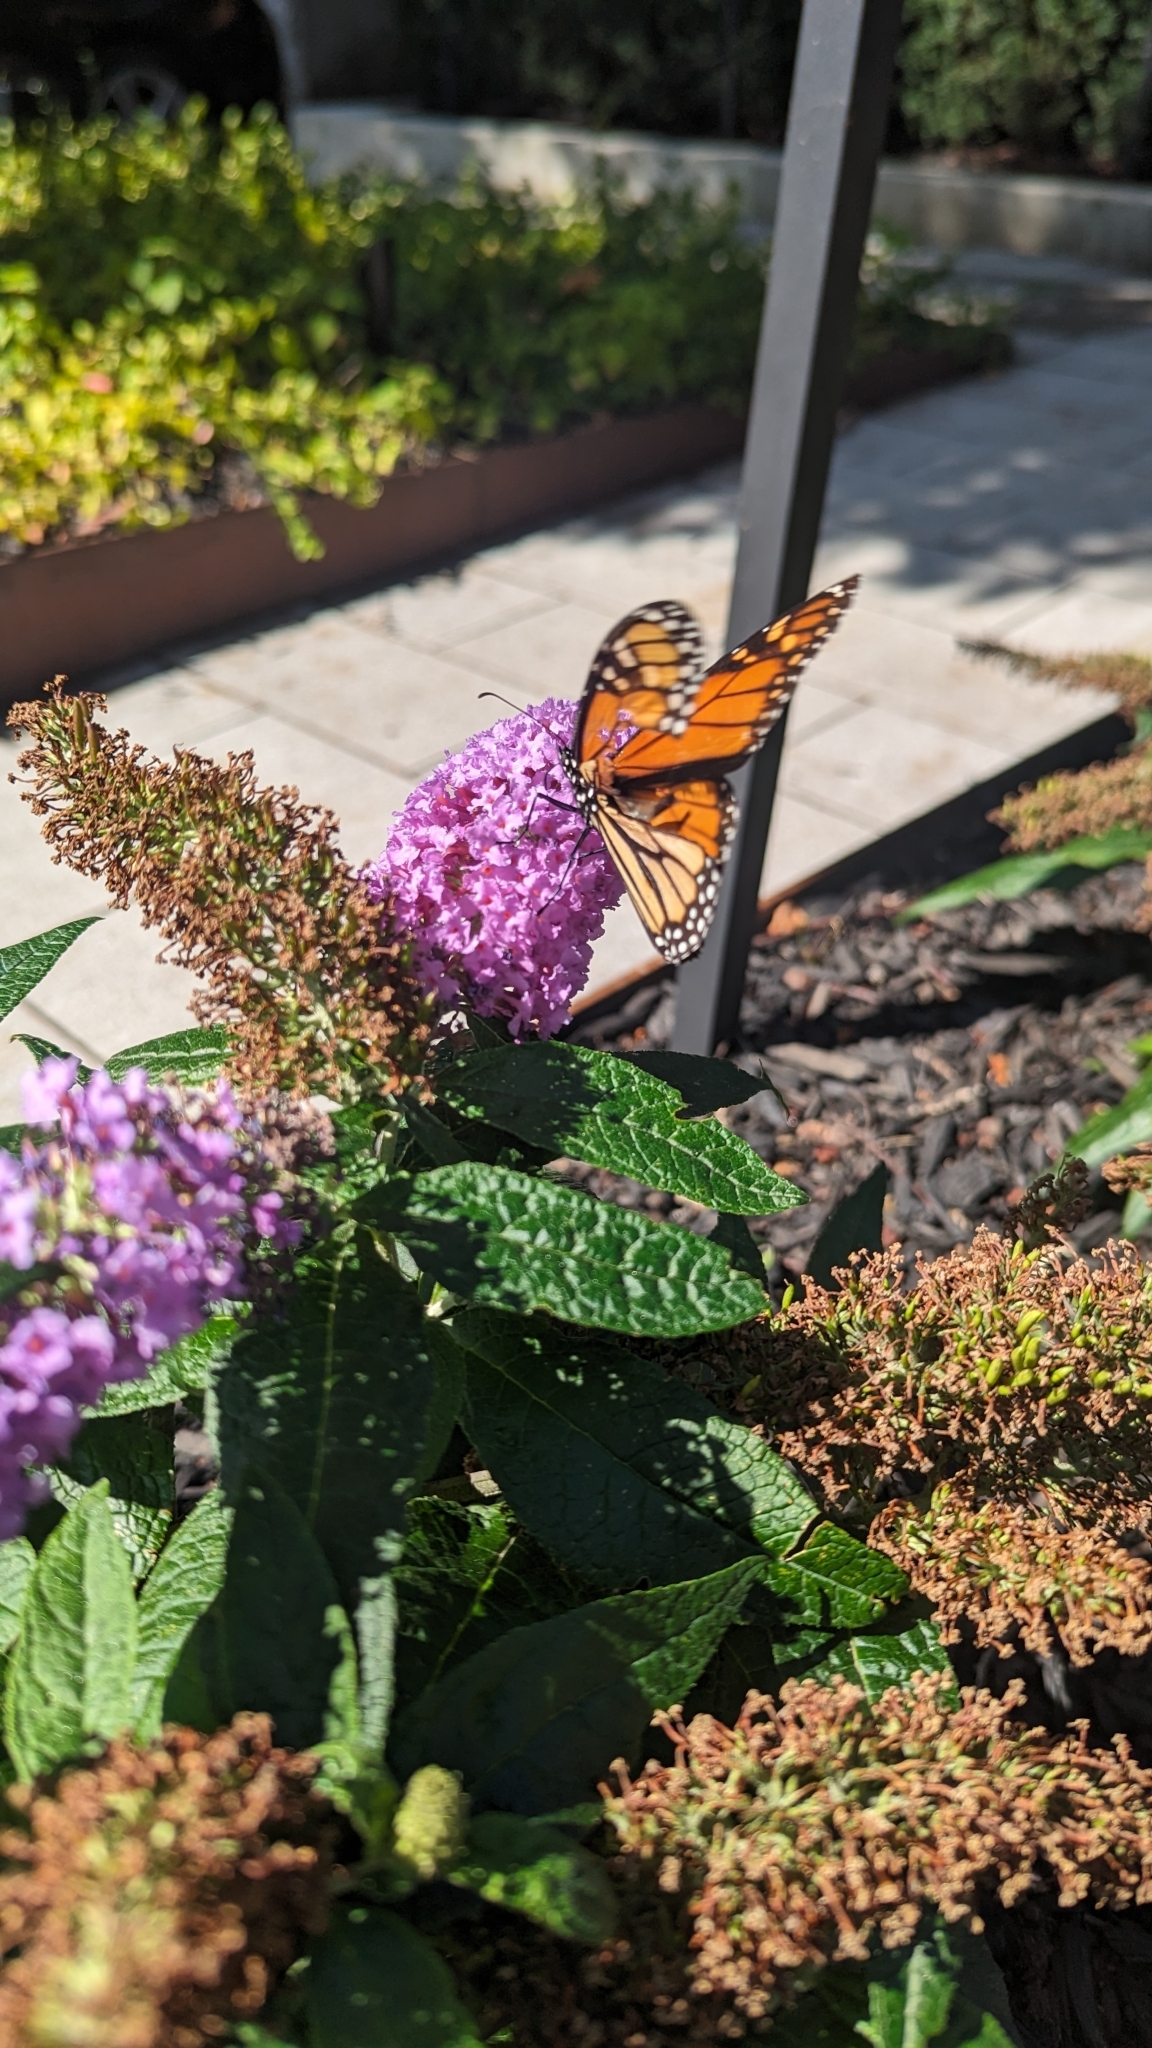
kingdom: Animalia
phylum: Arthropoda
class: Insecta
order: Lepidoptera
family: Nymphalidae
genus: Danaus
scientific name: Danaus plexippus
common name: Monarch
